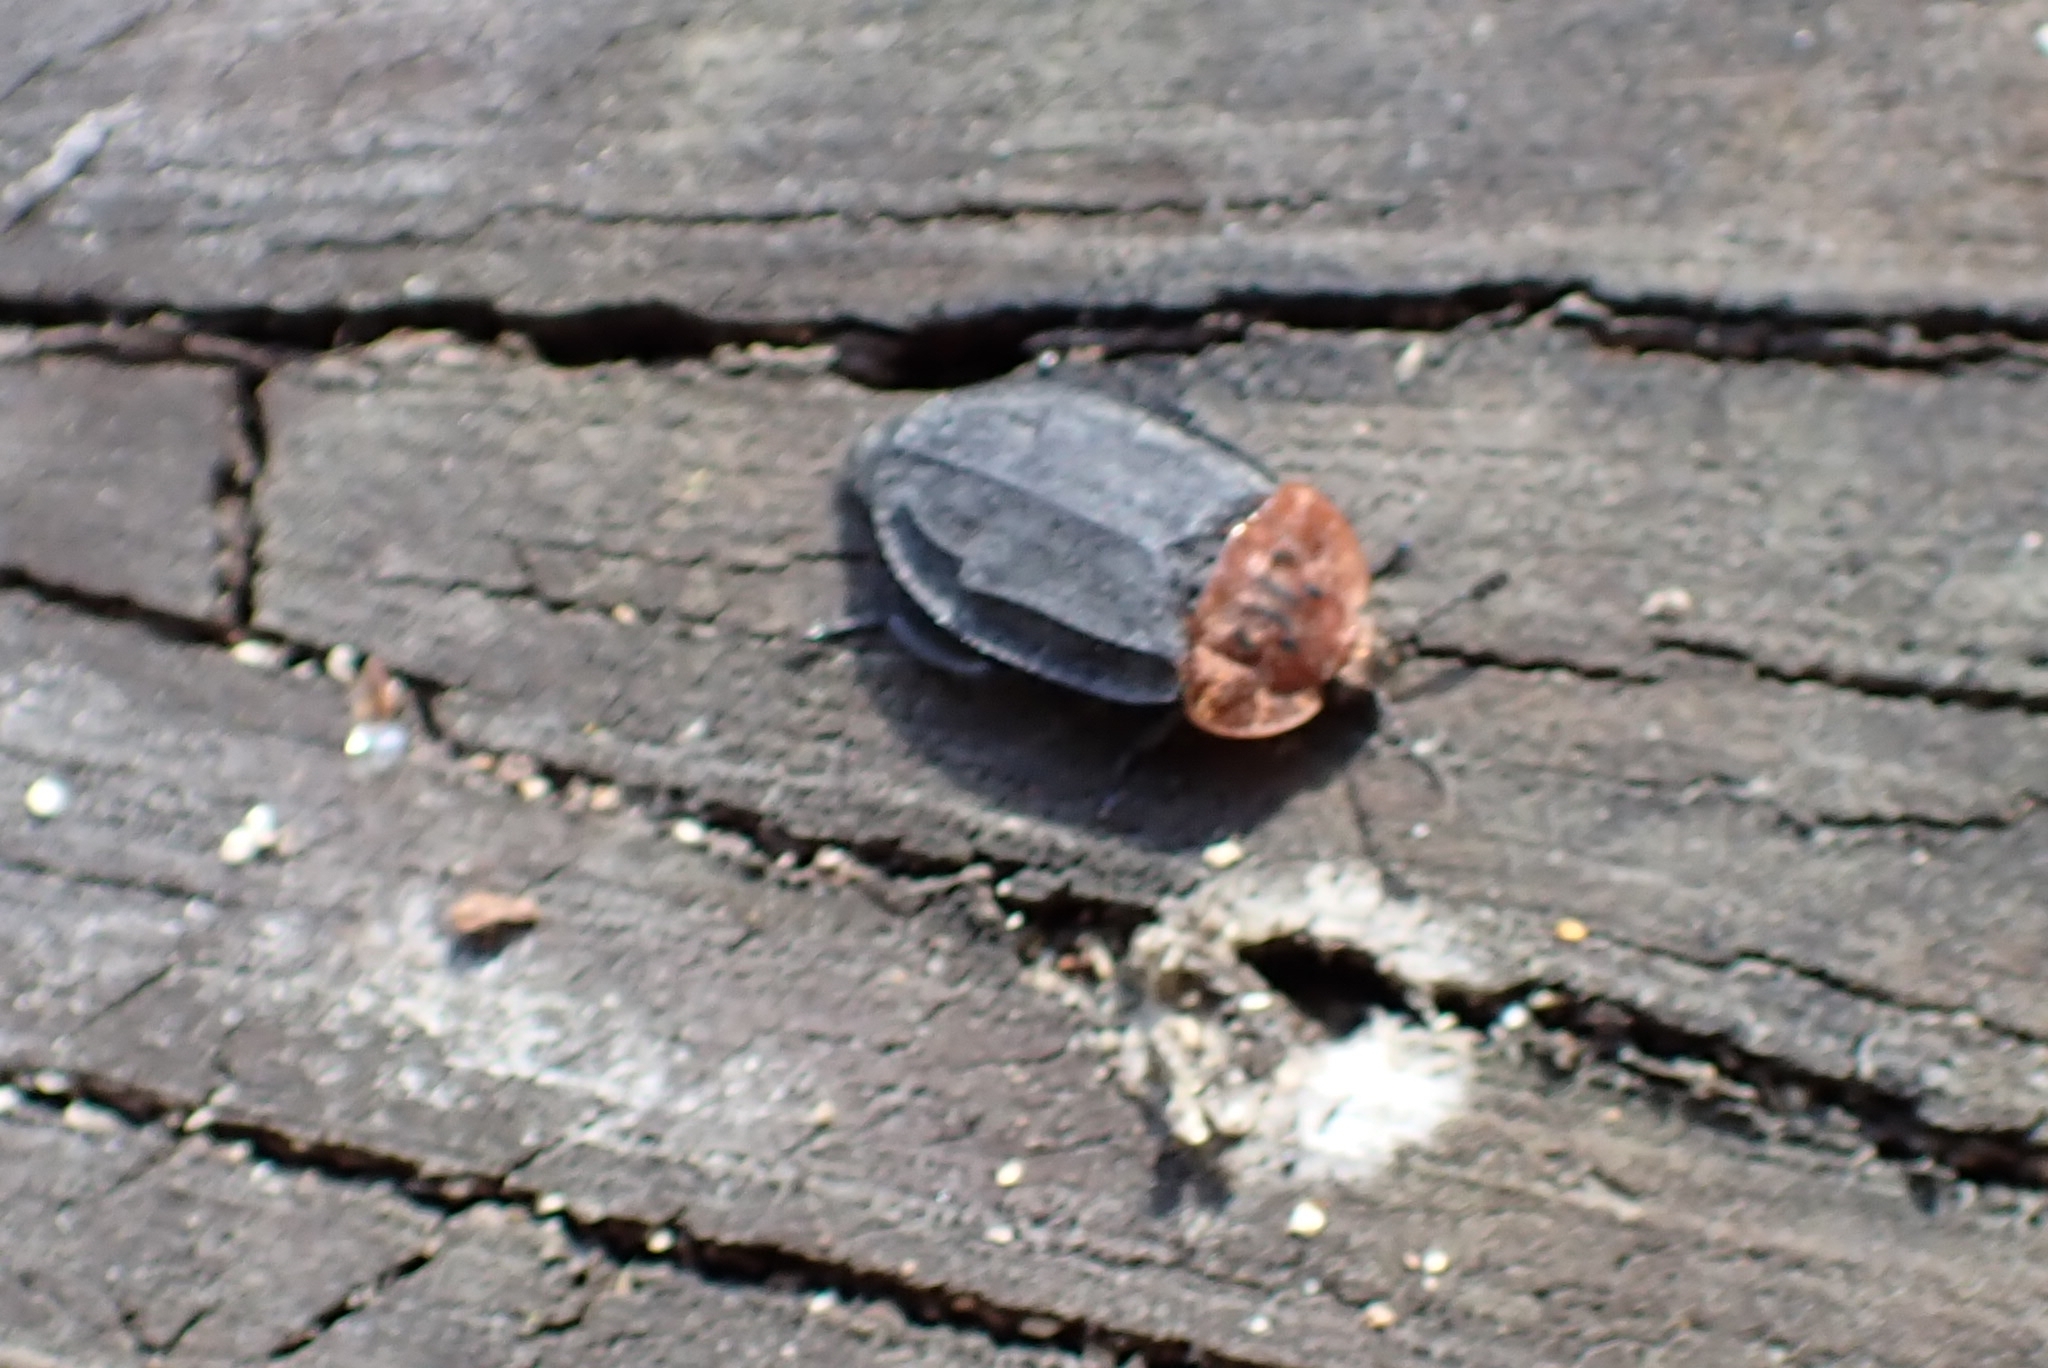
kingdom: Animalia
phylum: Arthropoda
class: Insecta
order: Coleoptera
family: Staphylinidae
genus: Oiceoptoma
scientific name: Oiceoptoma thoracicum
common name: Red-breasted carrion beetle
